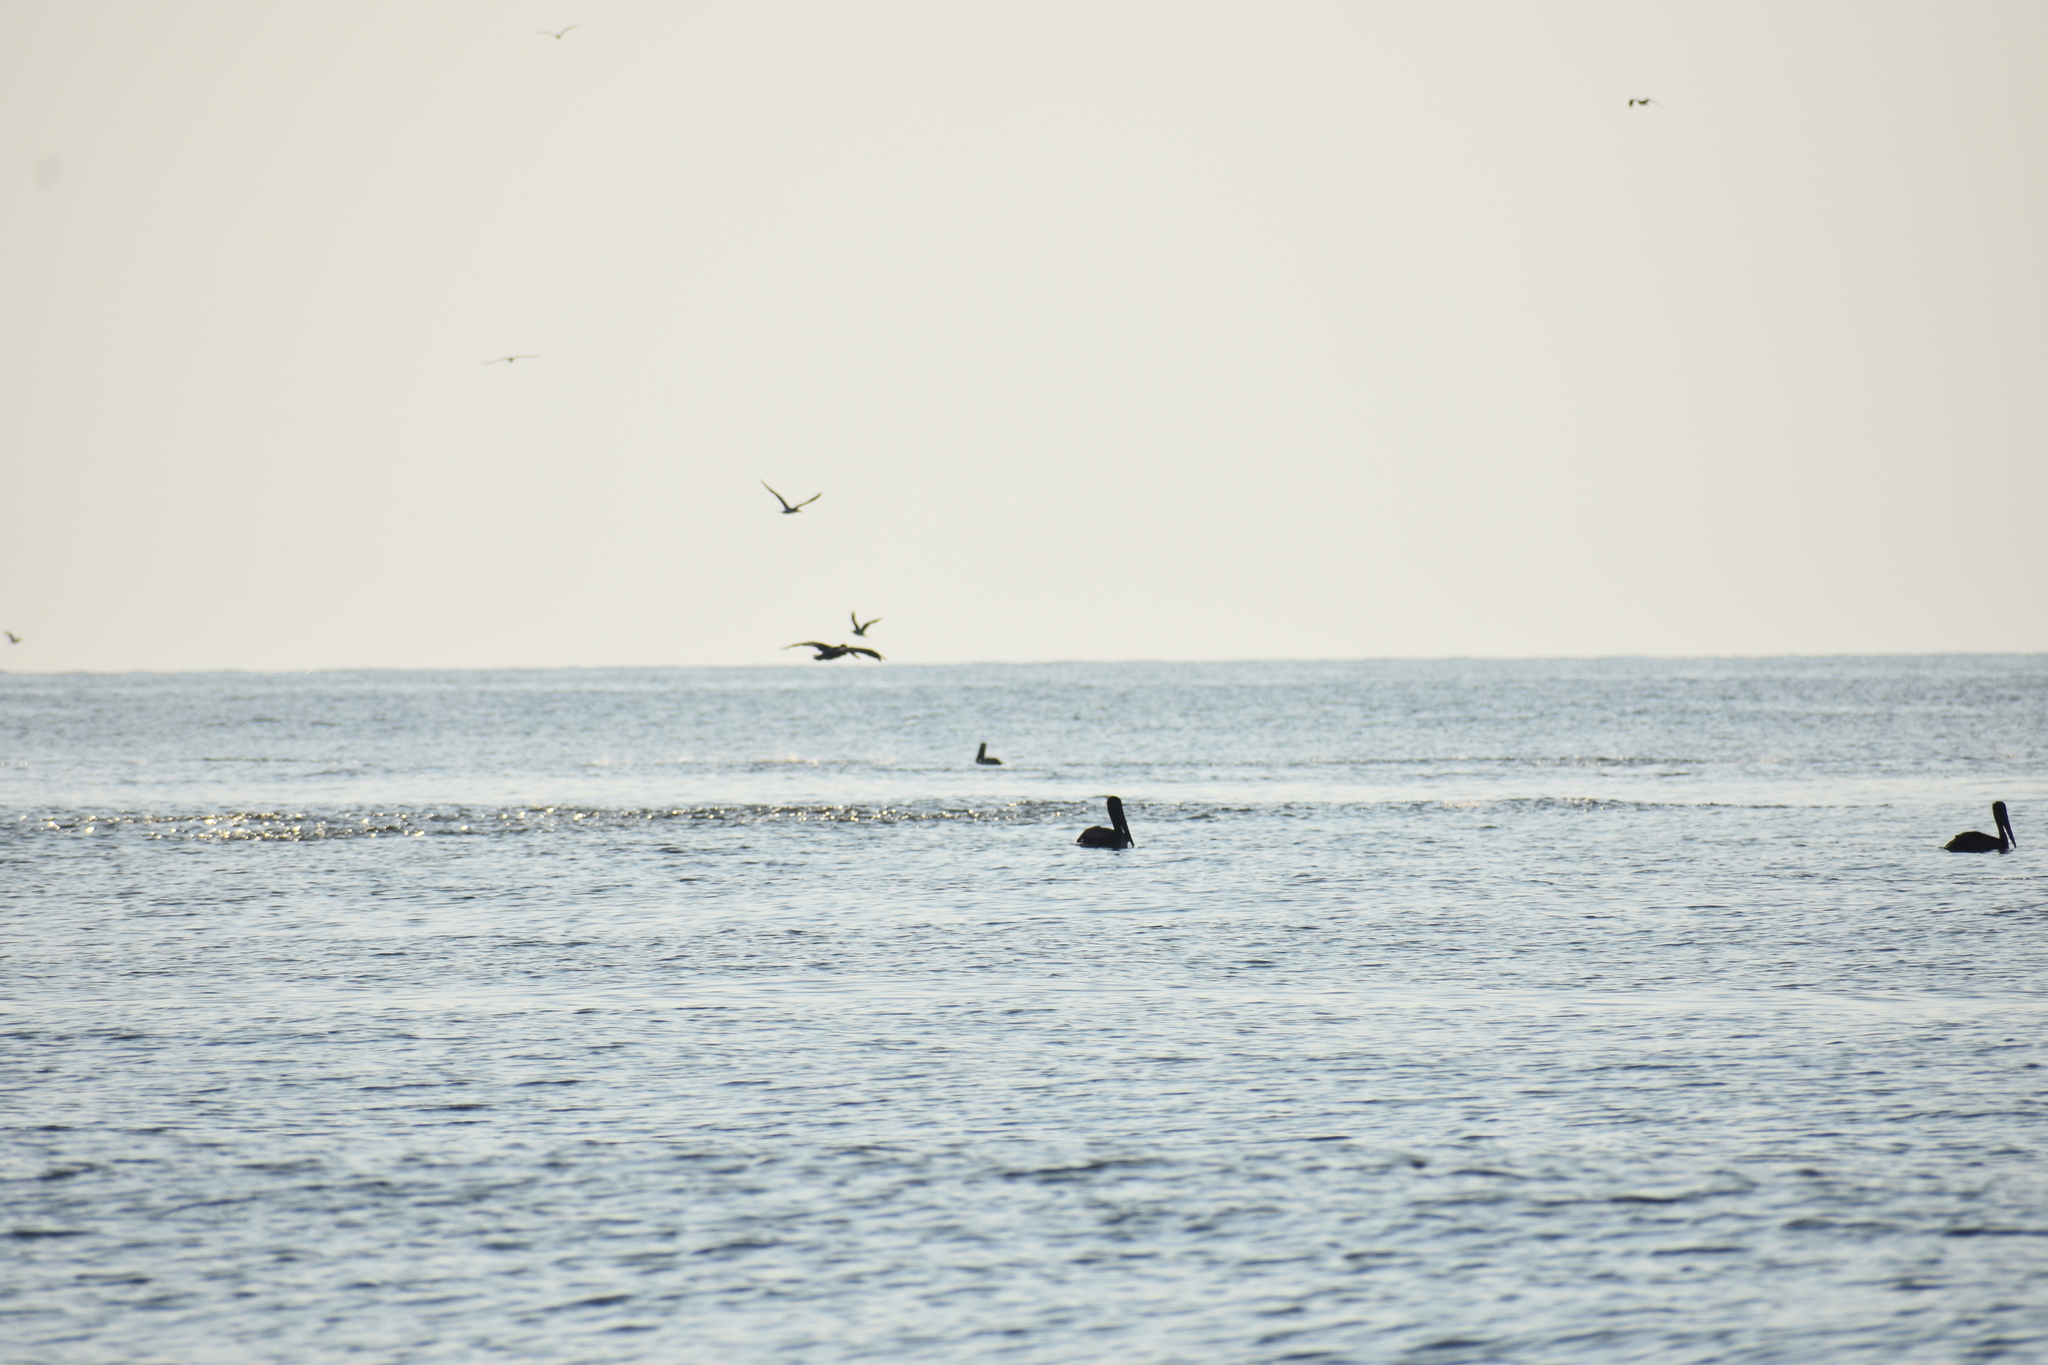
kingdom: Animalia
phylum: Chordata
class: Aves
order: Pelecaniformes
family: Pelecanidae
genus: Pelecanus
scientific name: Pelecanus occidentalis
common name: Brown pelican
